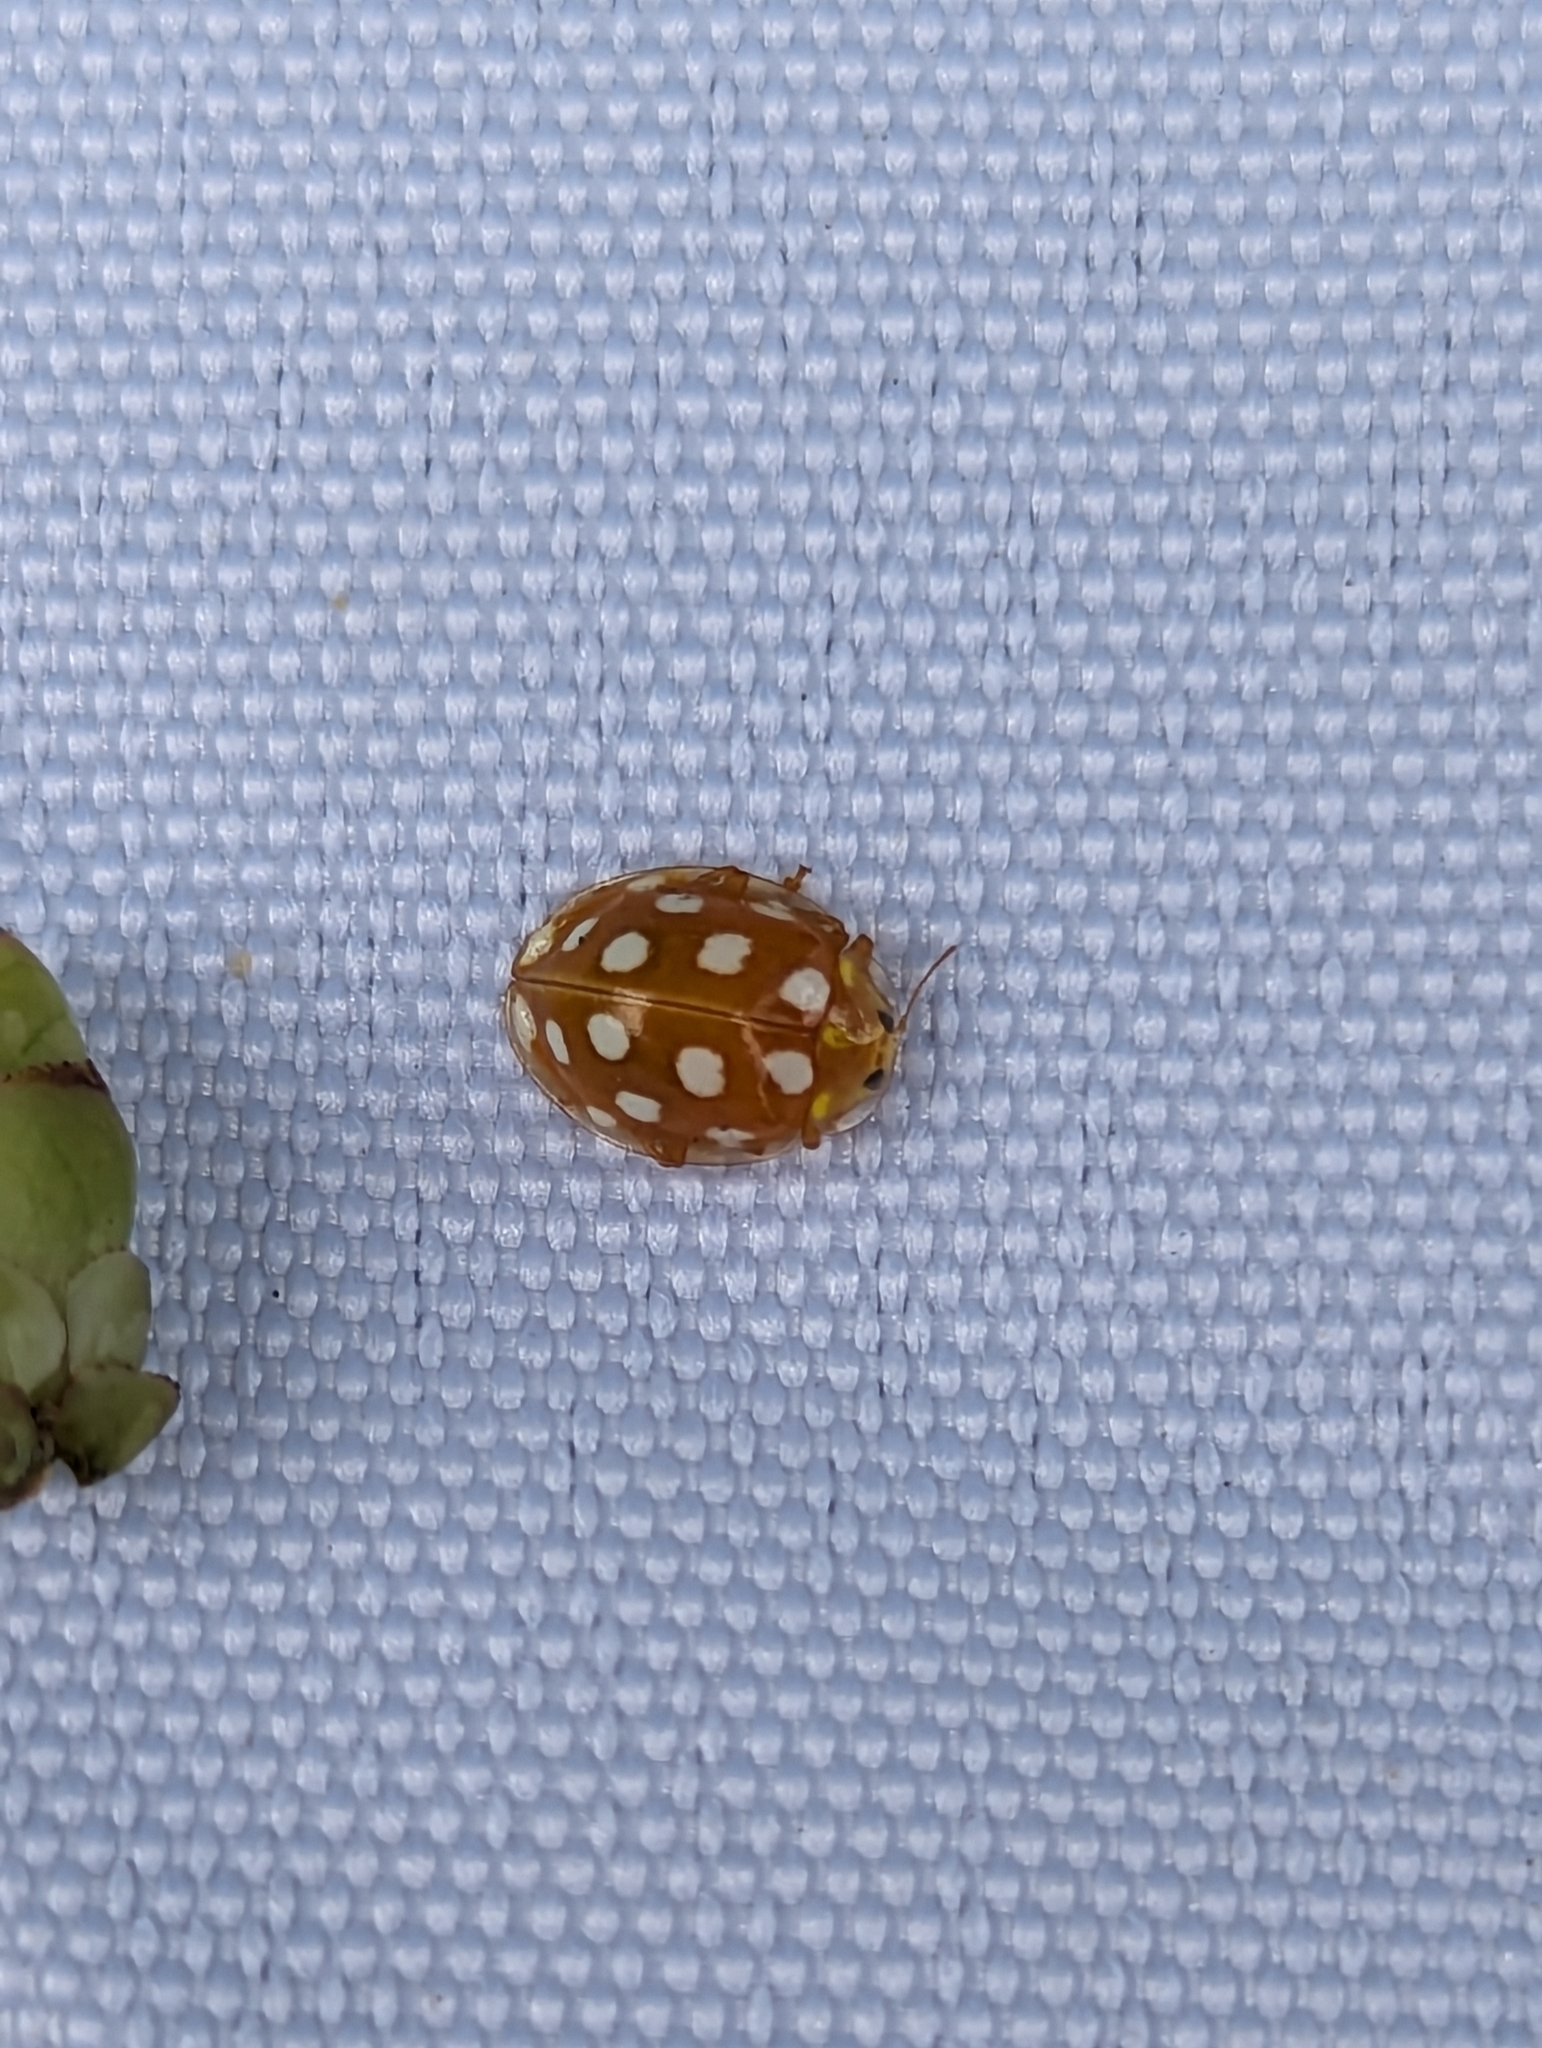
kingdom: Animalia
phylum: Arthropoda
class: Insecta
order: Coleoptera
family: Coccinellidae
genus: Halyzia
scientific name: Halyzia sedecimguttata
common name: Orange ladybird
